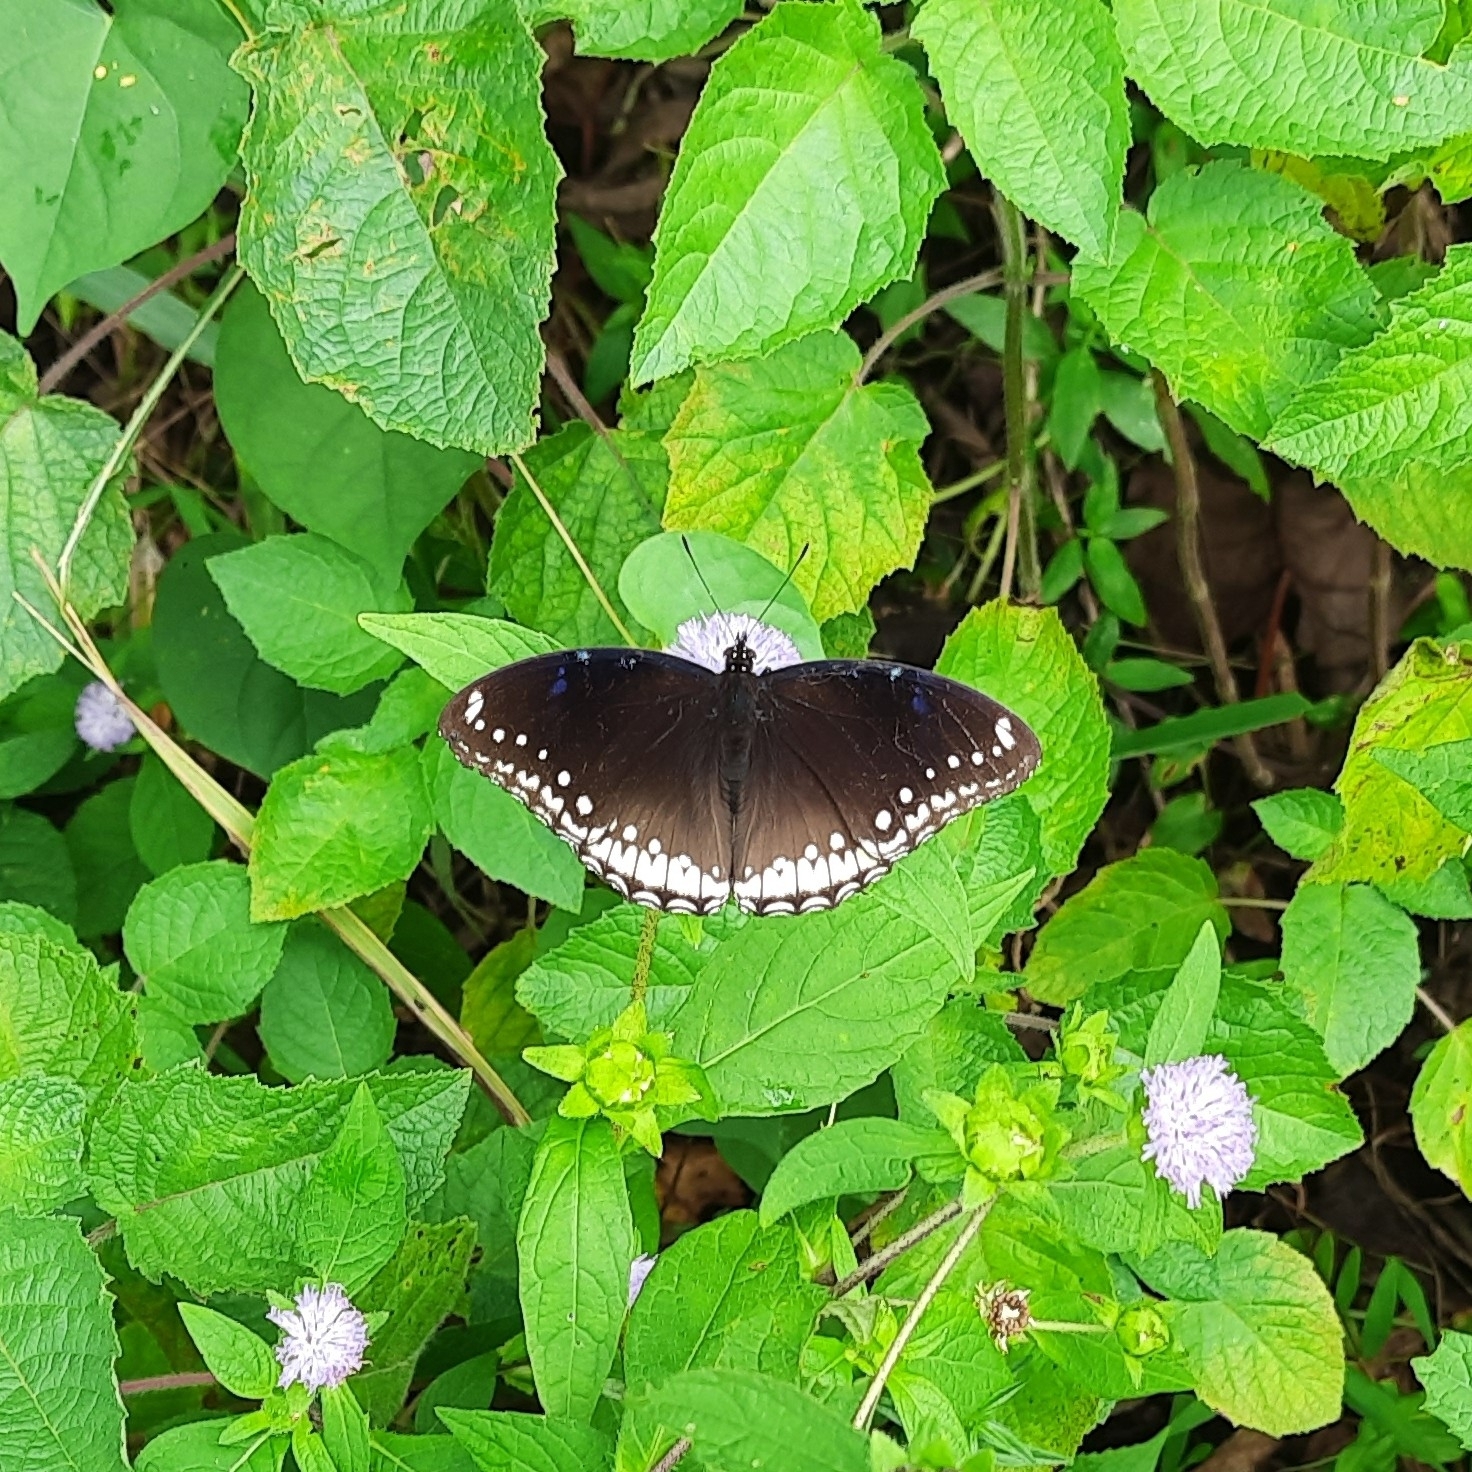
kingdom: Animalia
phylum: Arthropoda
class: Insecta
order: Lepidoptera
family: Nymphalidae
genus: Hypolimnas
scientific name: Hypolimnas bolina
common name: Great eggfly
